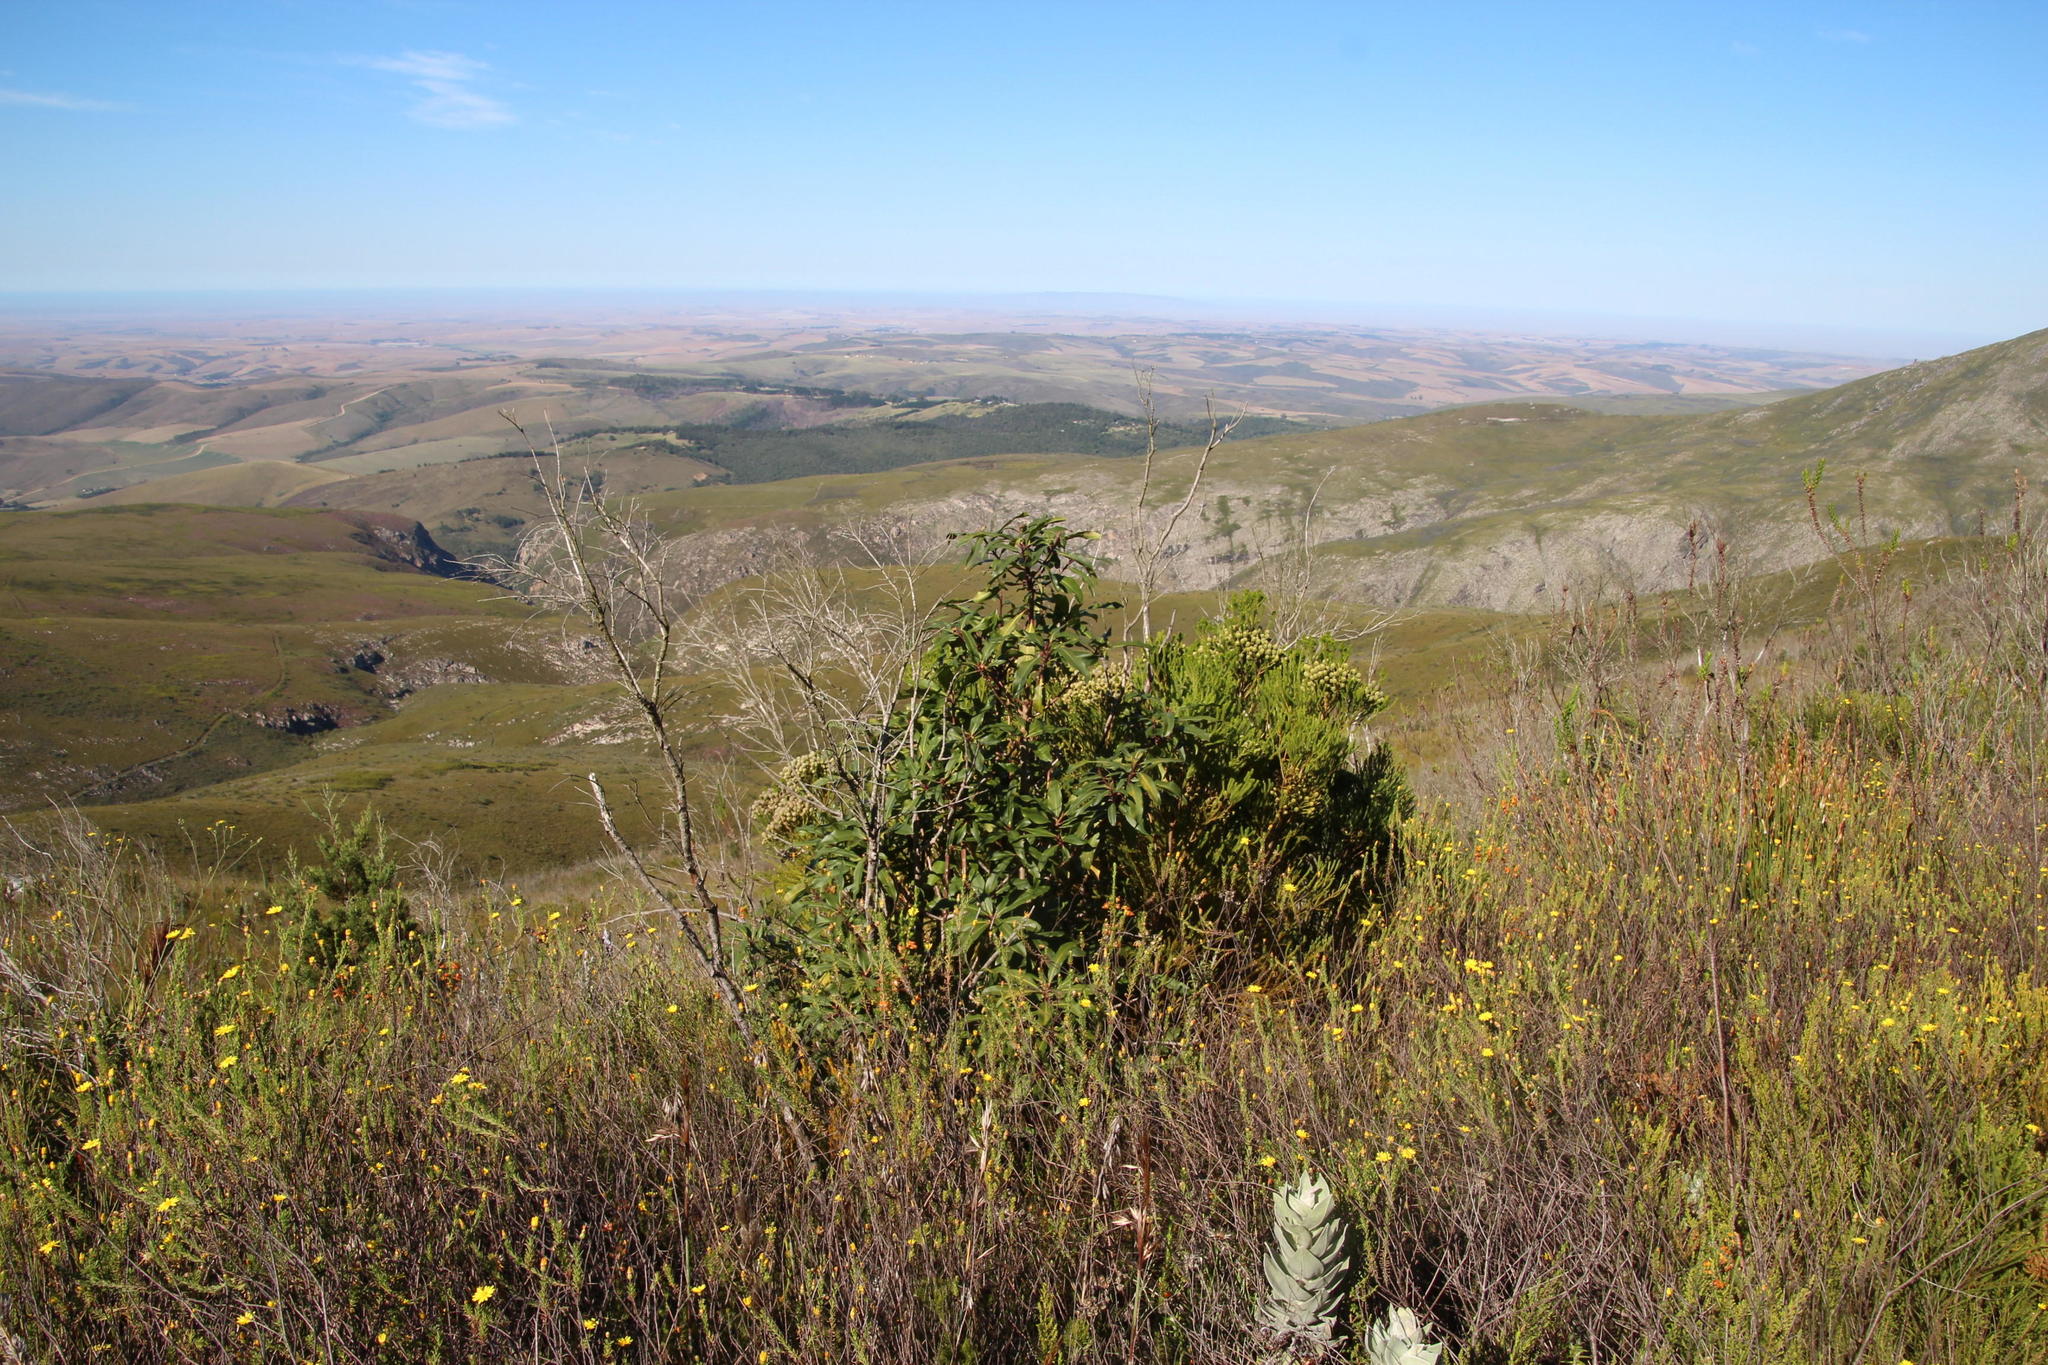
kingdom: Plantae
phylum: Tracheophyta
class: Magnoliopsida
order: Ericales
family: Primulaceae
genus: Myrsine
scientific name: Myrsine melanophloeos
